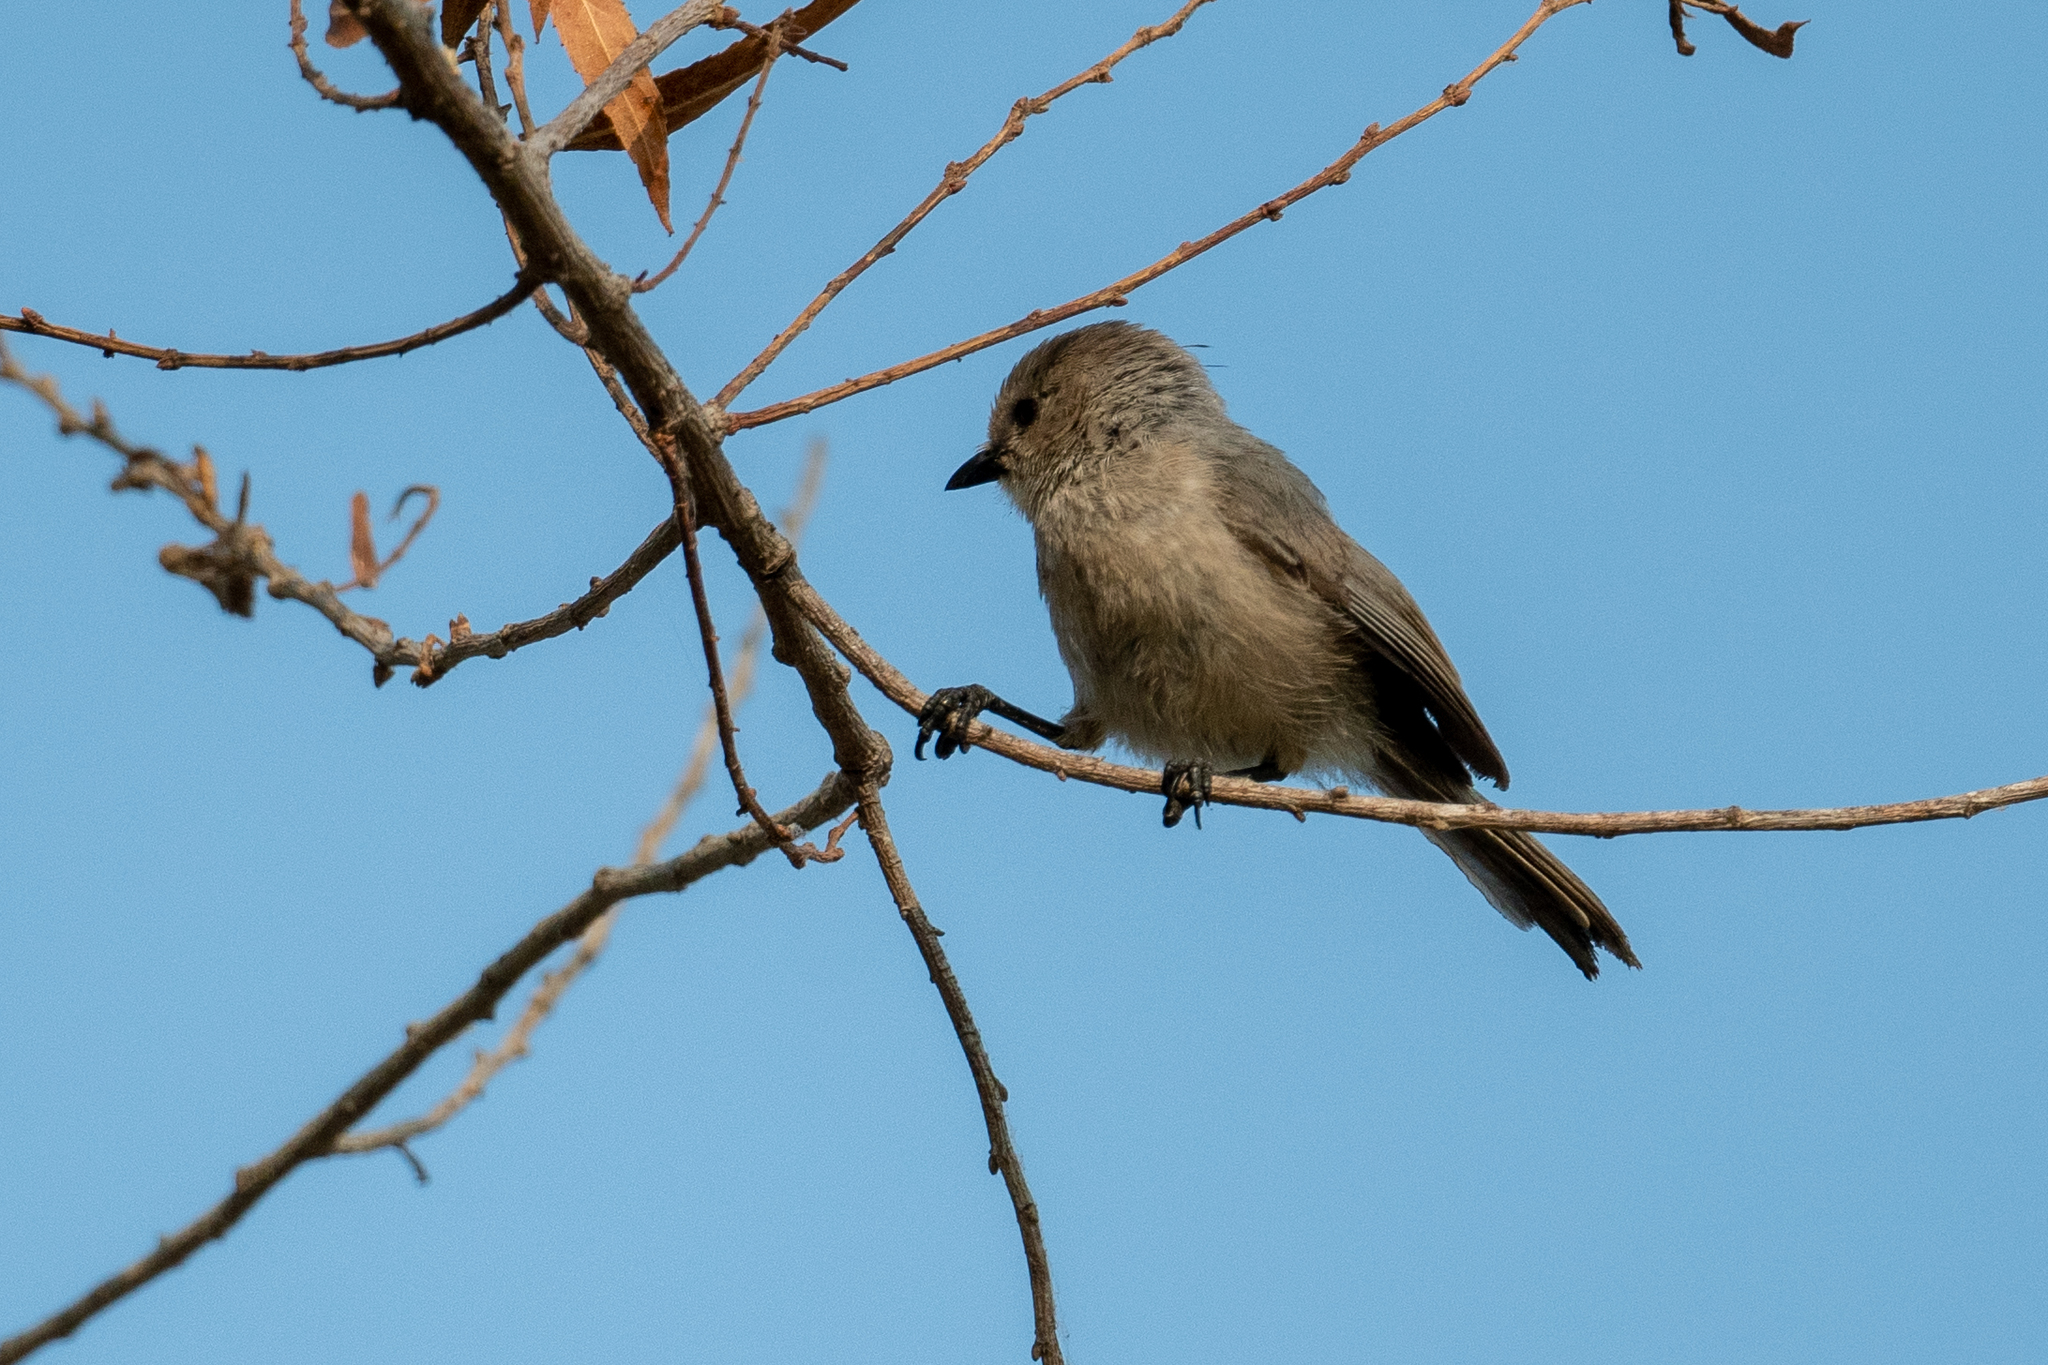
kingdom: Animalia
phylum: Chordata
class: Aves
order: Passeriformes
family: Aegithalidae
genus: Psaltriparus
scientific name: Psaltriparus minimus
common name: American bushtit
